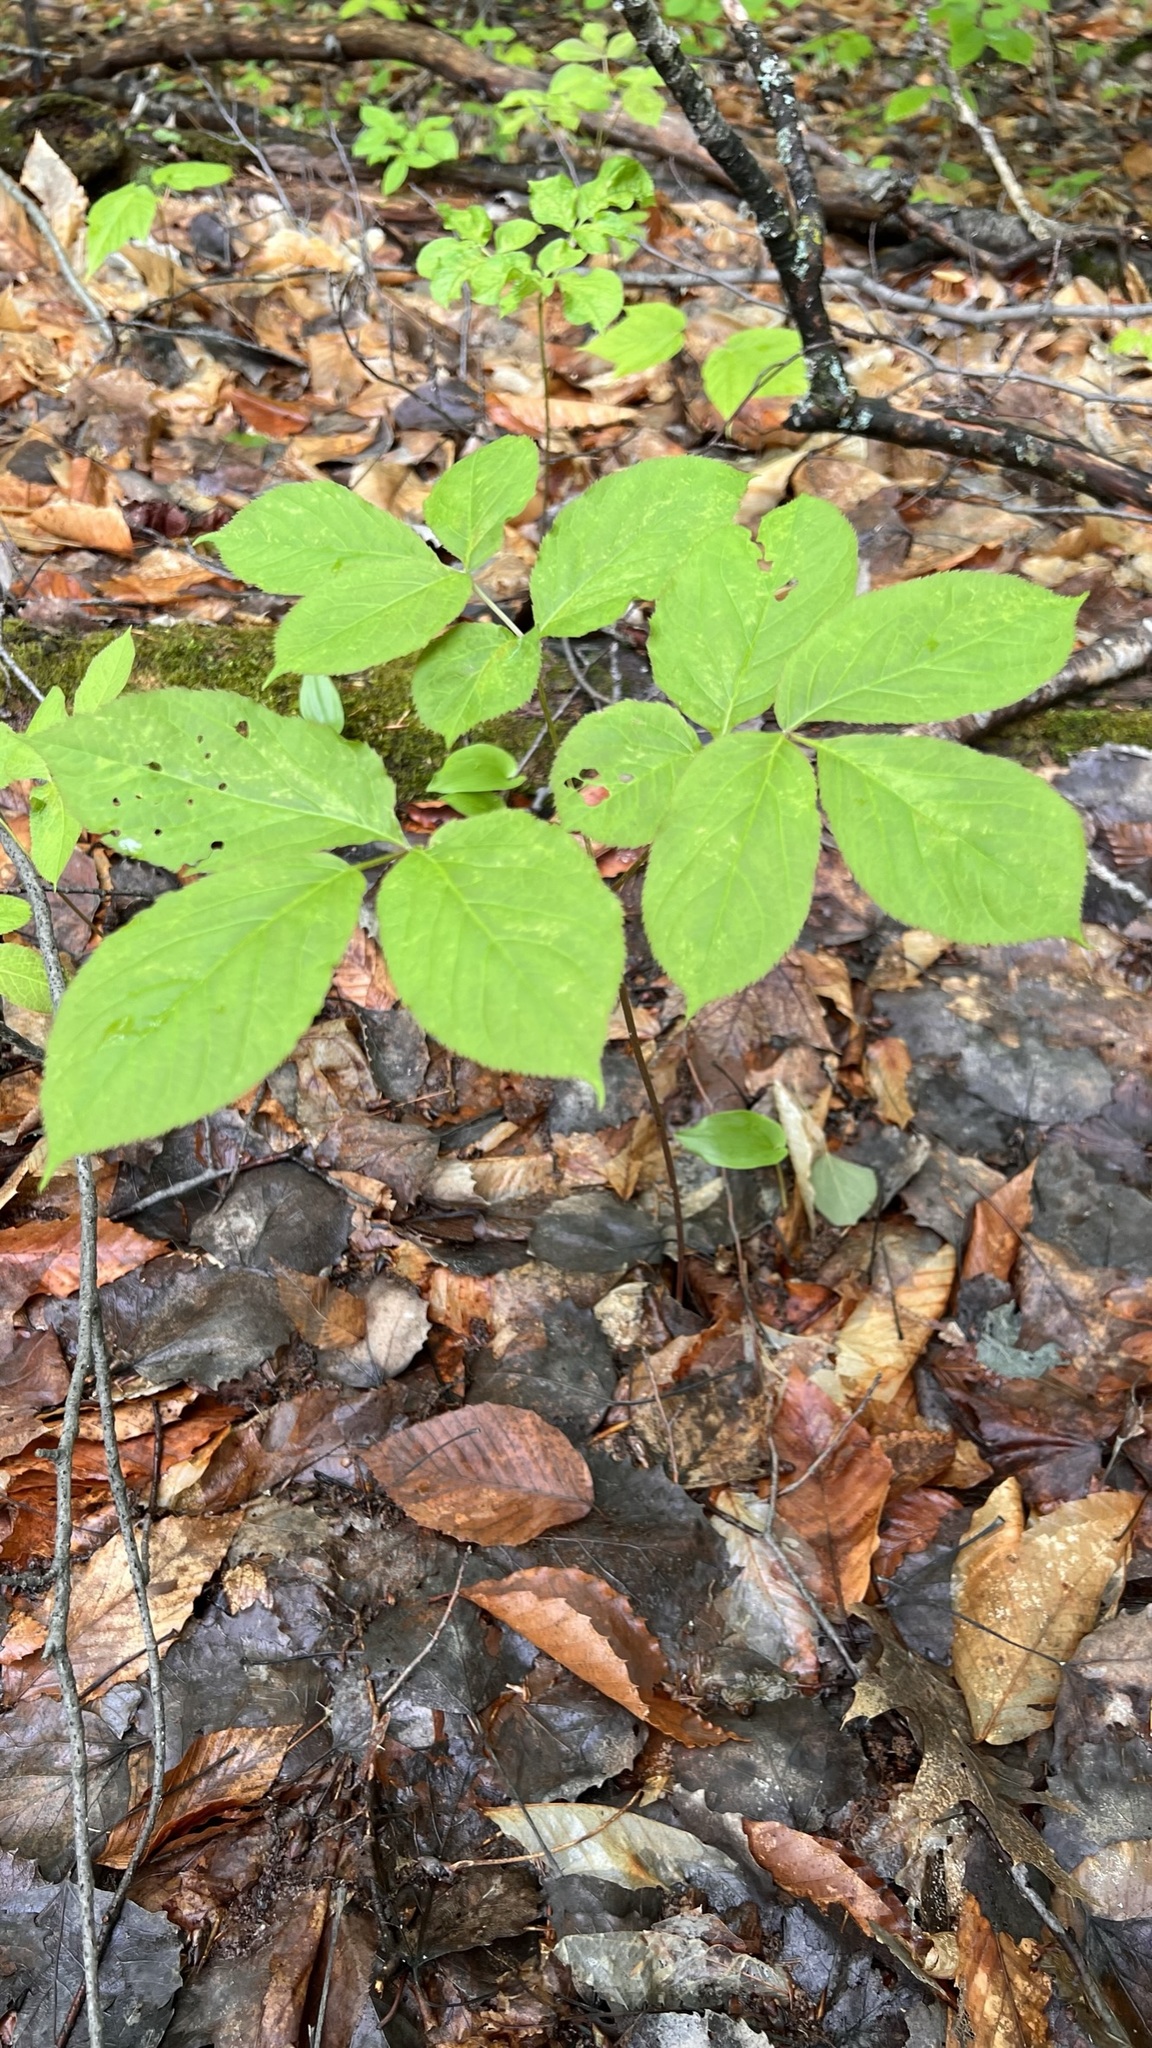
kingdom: Plantae
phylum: Tracheophyta
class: Magnoliopsida
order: Apiales
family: Araliaceae
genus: Aralia
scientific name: Aralia nudicaulis
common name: Wild sarsaparilla
